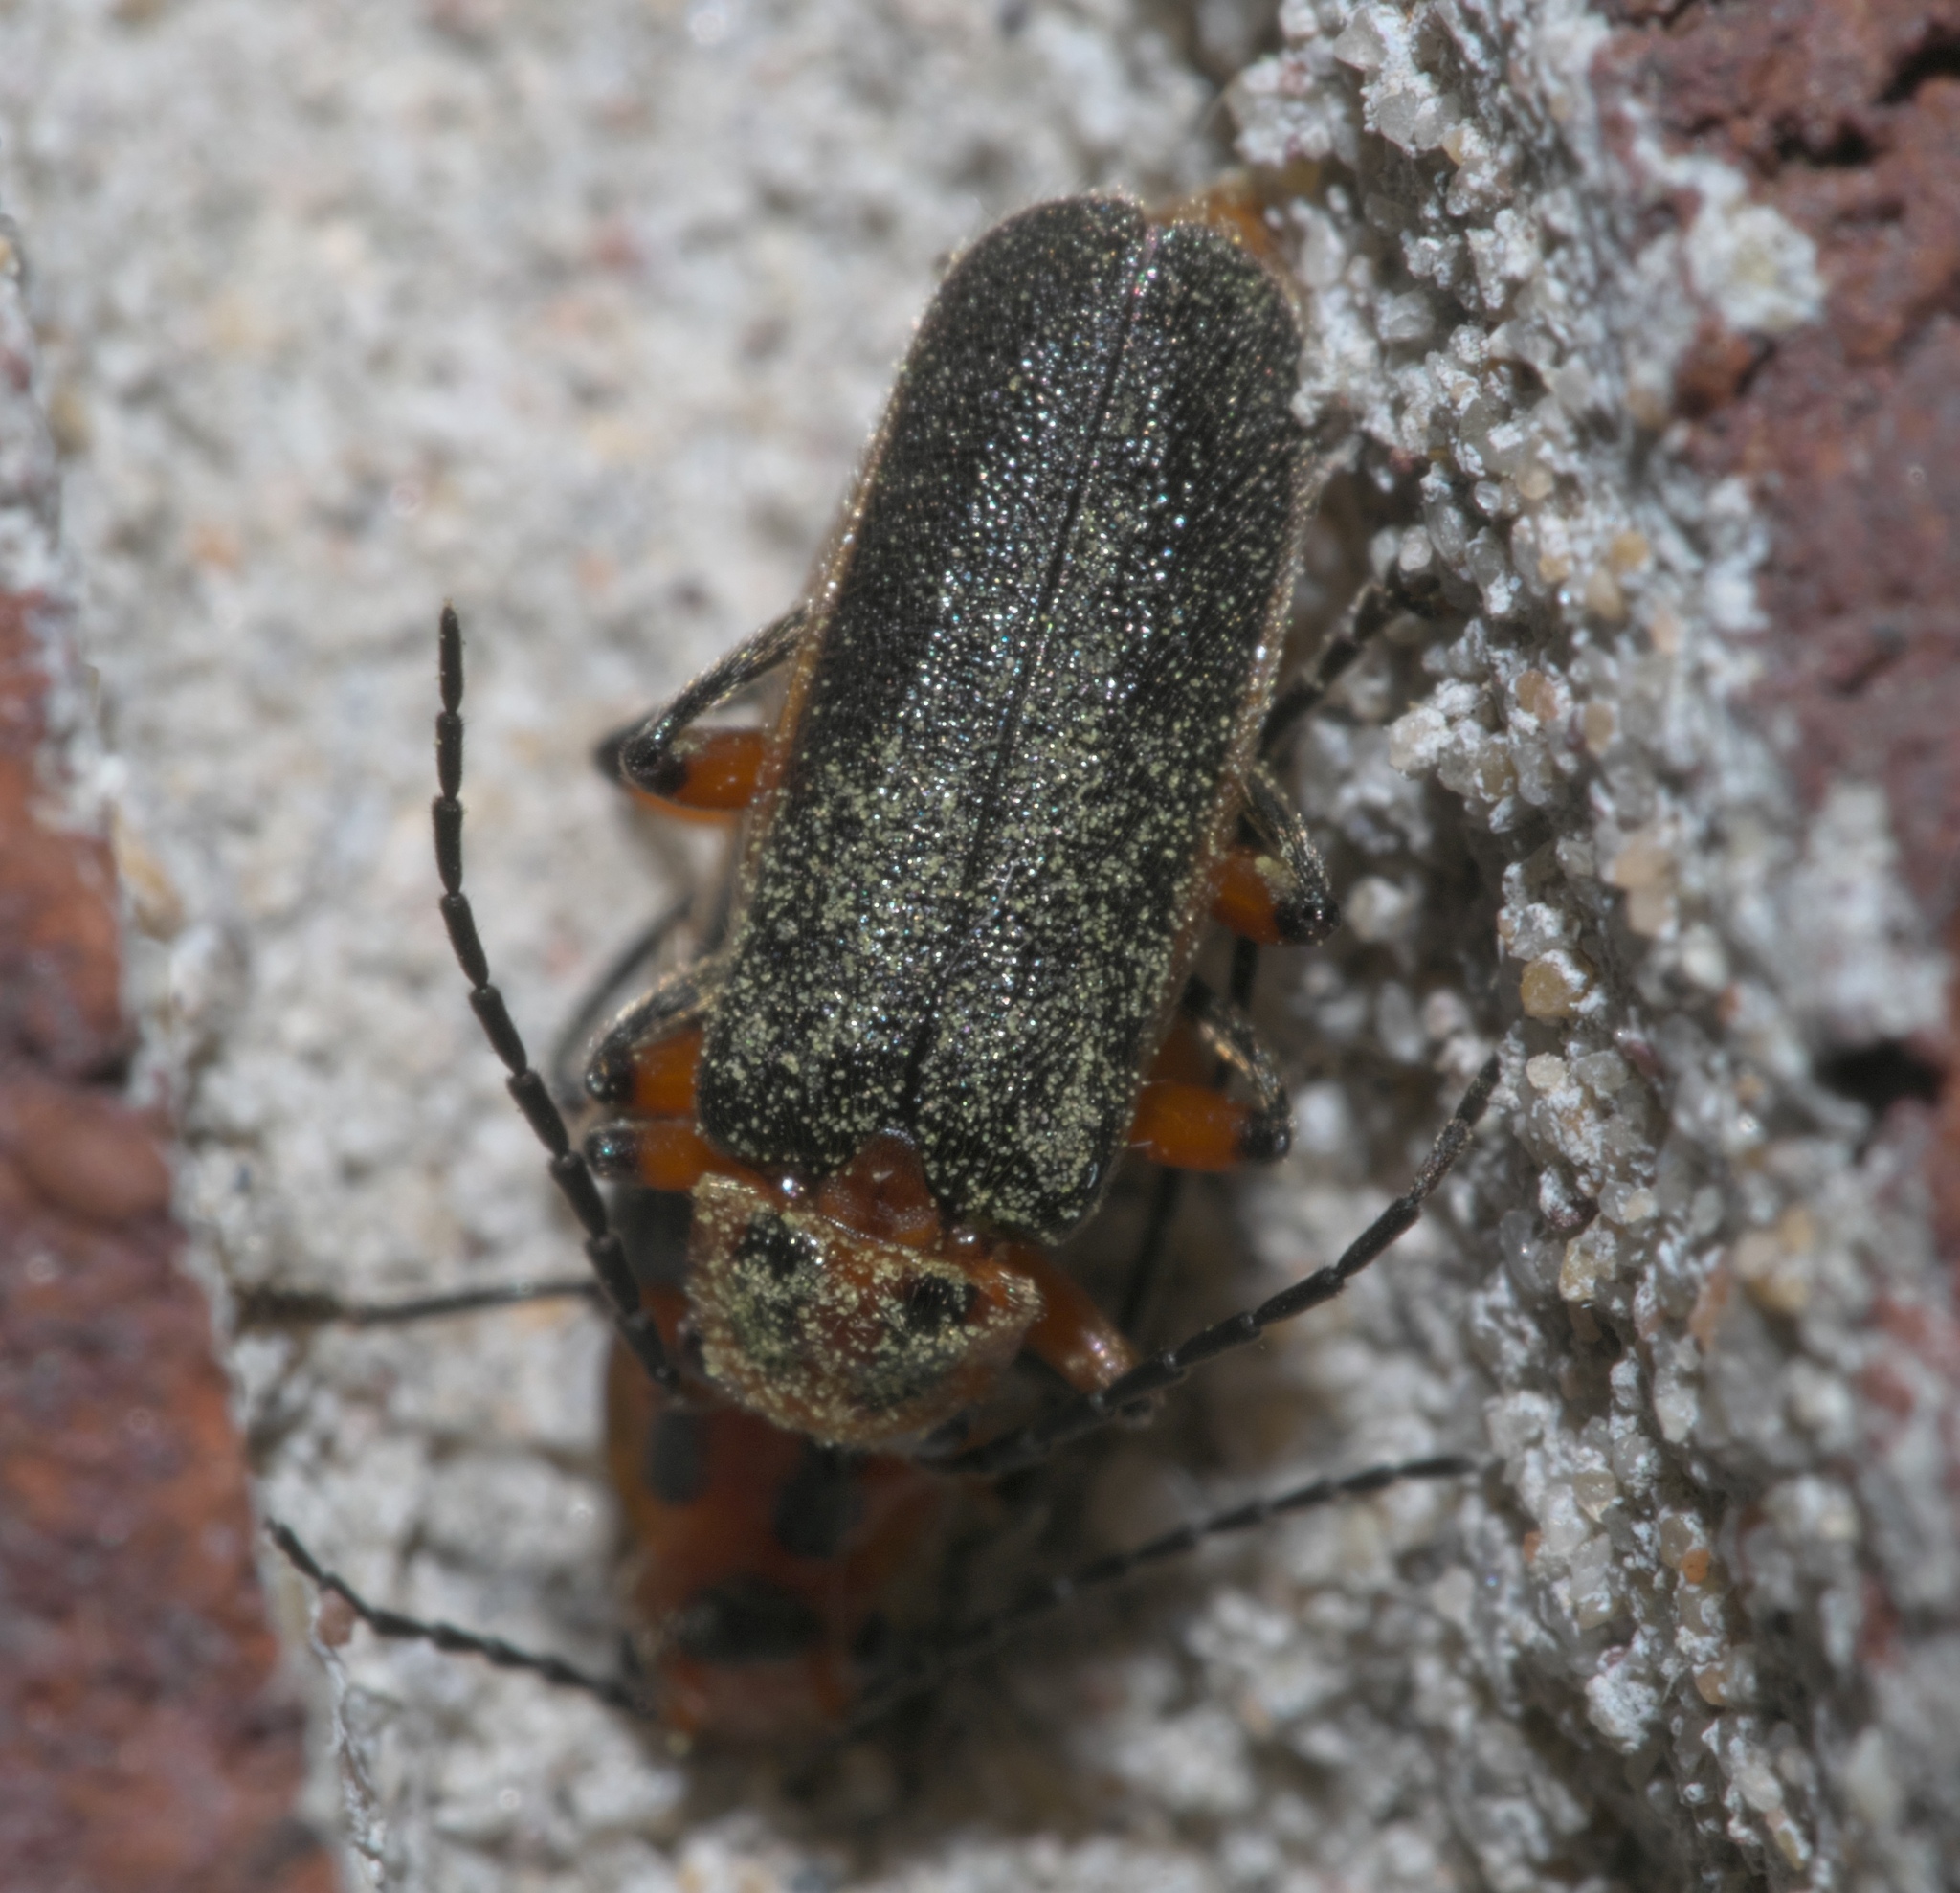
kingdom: Animalia
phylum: Arthropoda
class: Insecta
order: Coleoptera
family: Cantharidae
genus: Atalantycha
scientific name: Atalantycha bilineata
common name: Two-lined leatherwing
